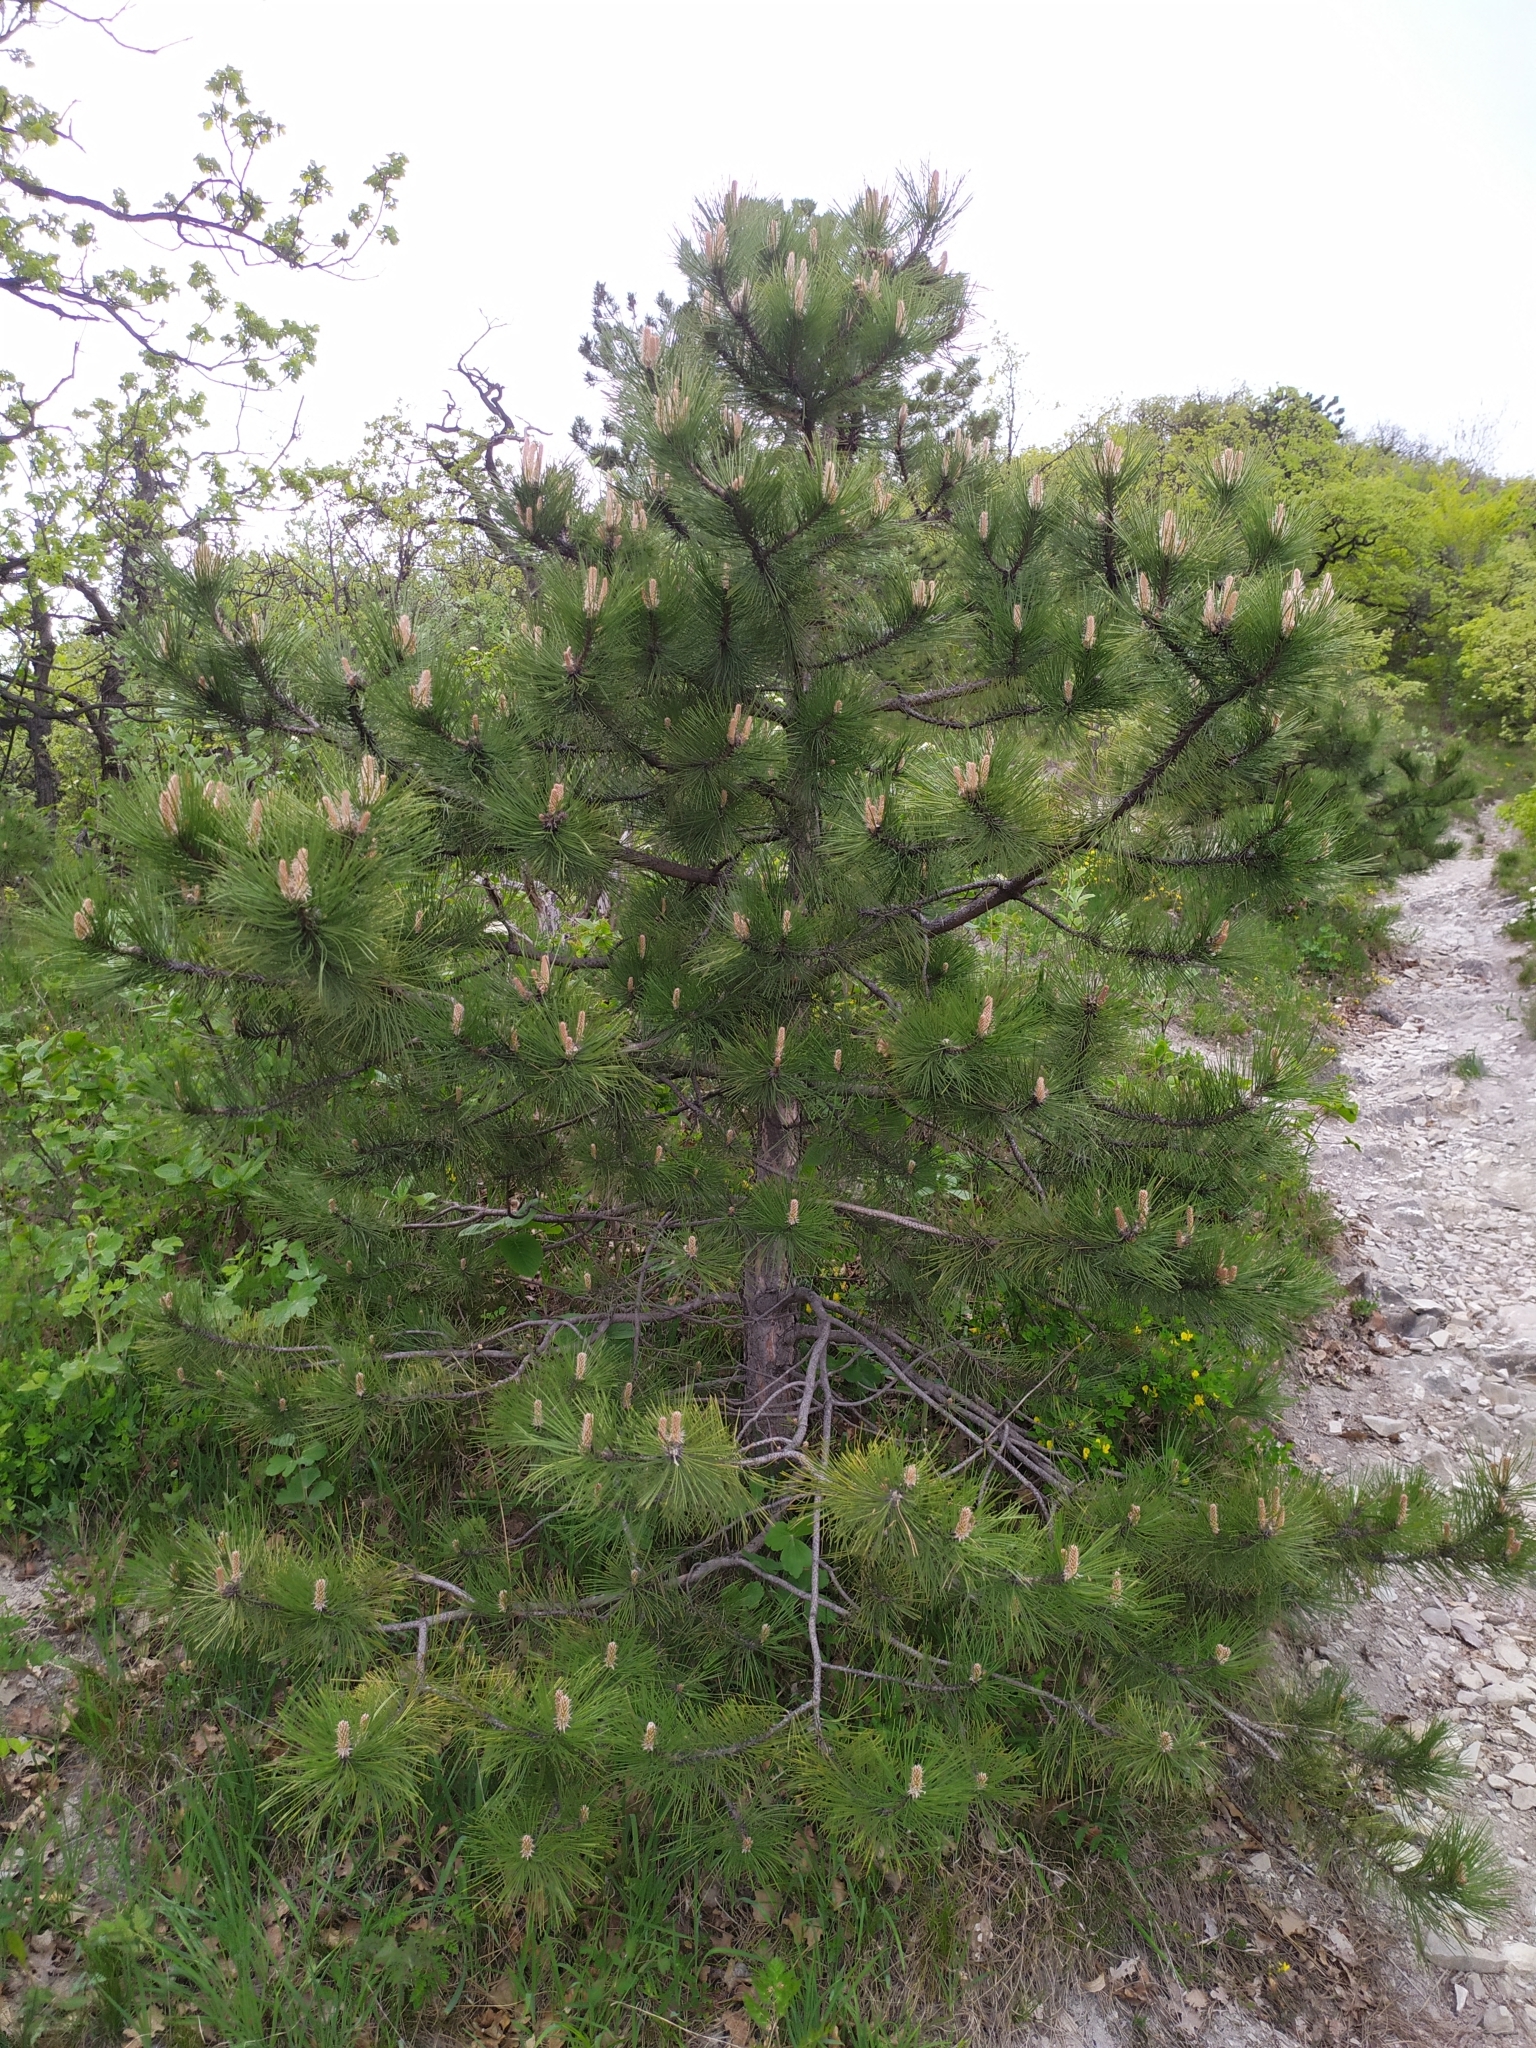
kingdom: Plantae
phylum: Tracheophyta
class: Pinopsida
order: Pinales
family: Pinaceae
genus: Pinus
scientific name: Pinus nigra
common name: Austrian pine
